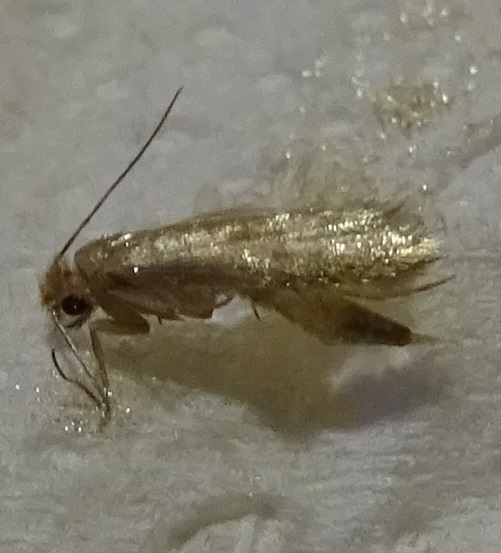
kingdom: Animalia
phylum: Arthropoda
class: Insecta
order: Lepidoptera
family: Tineidae
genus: Tineola
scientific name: Tineola bisselliella
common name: Webbing clothes moth
